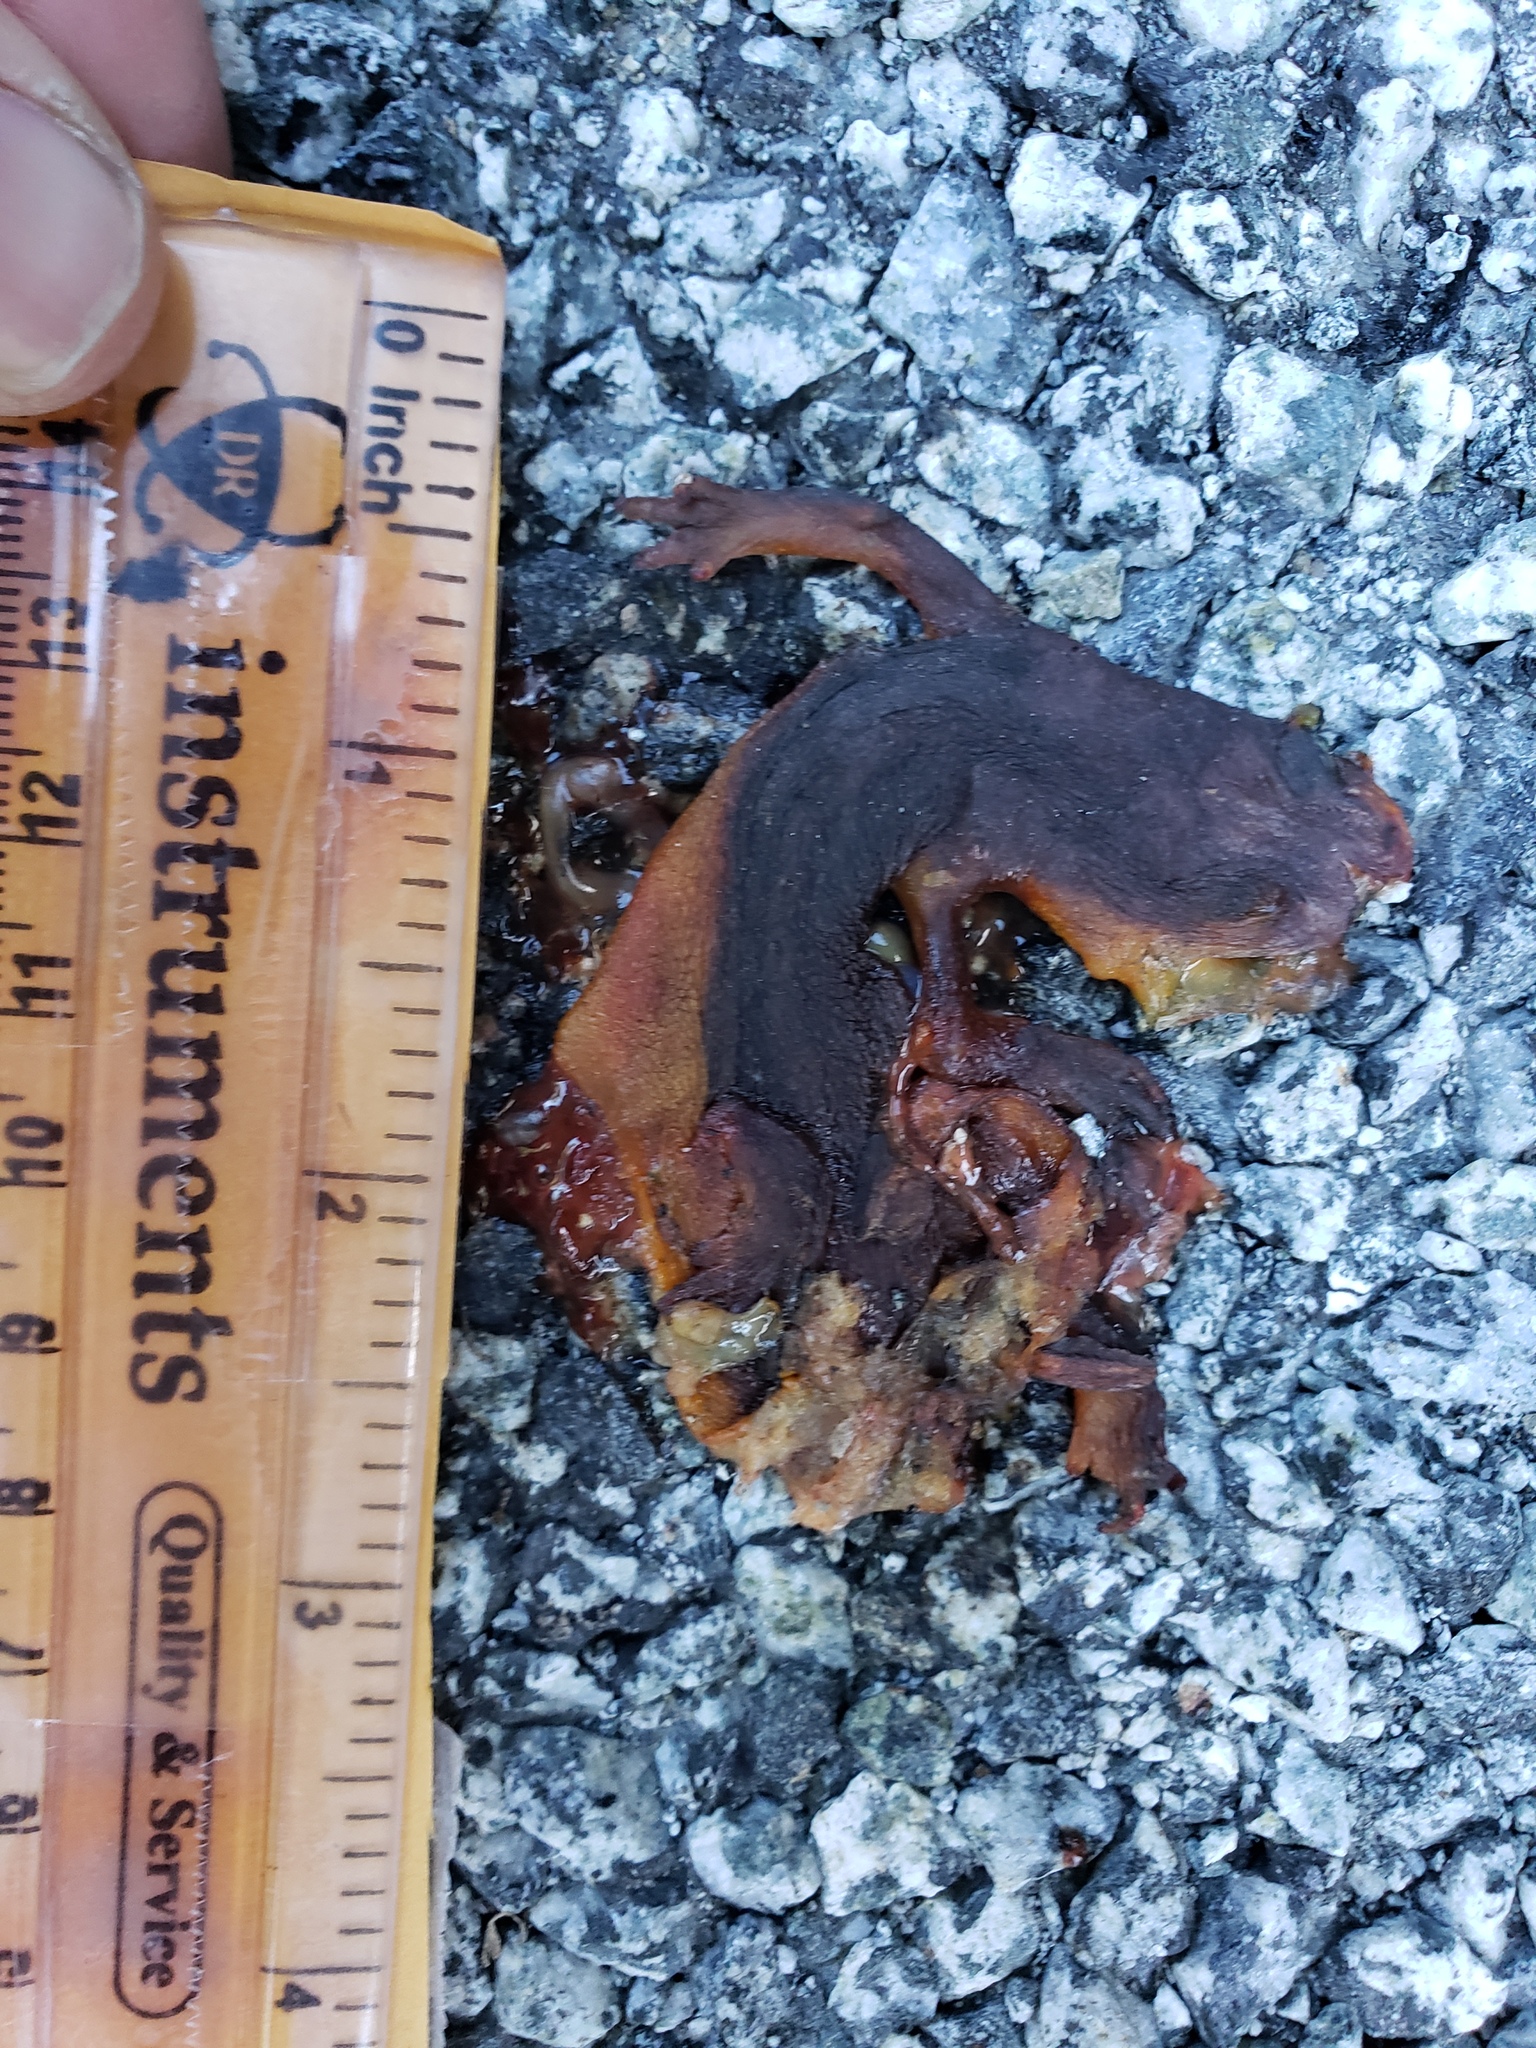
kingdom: Animalia
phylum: Chordata
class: Amphibia
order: Caudata
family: Salamandridae
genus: Taricha
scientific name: Taricha
